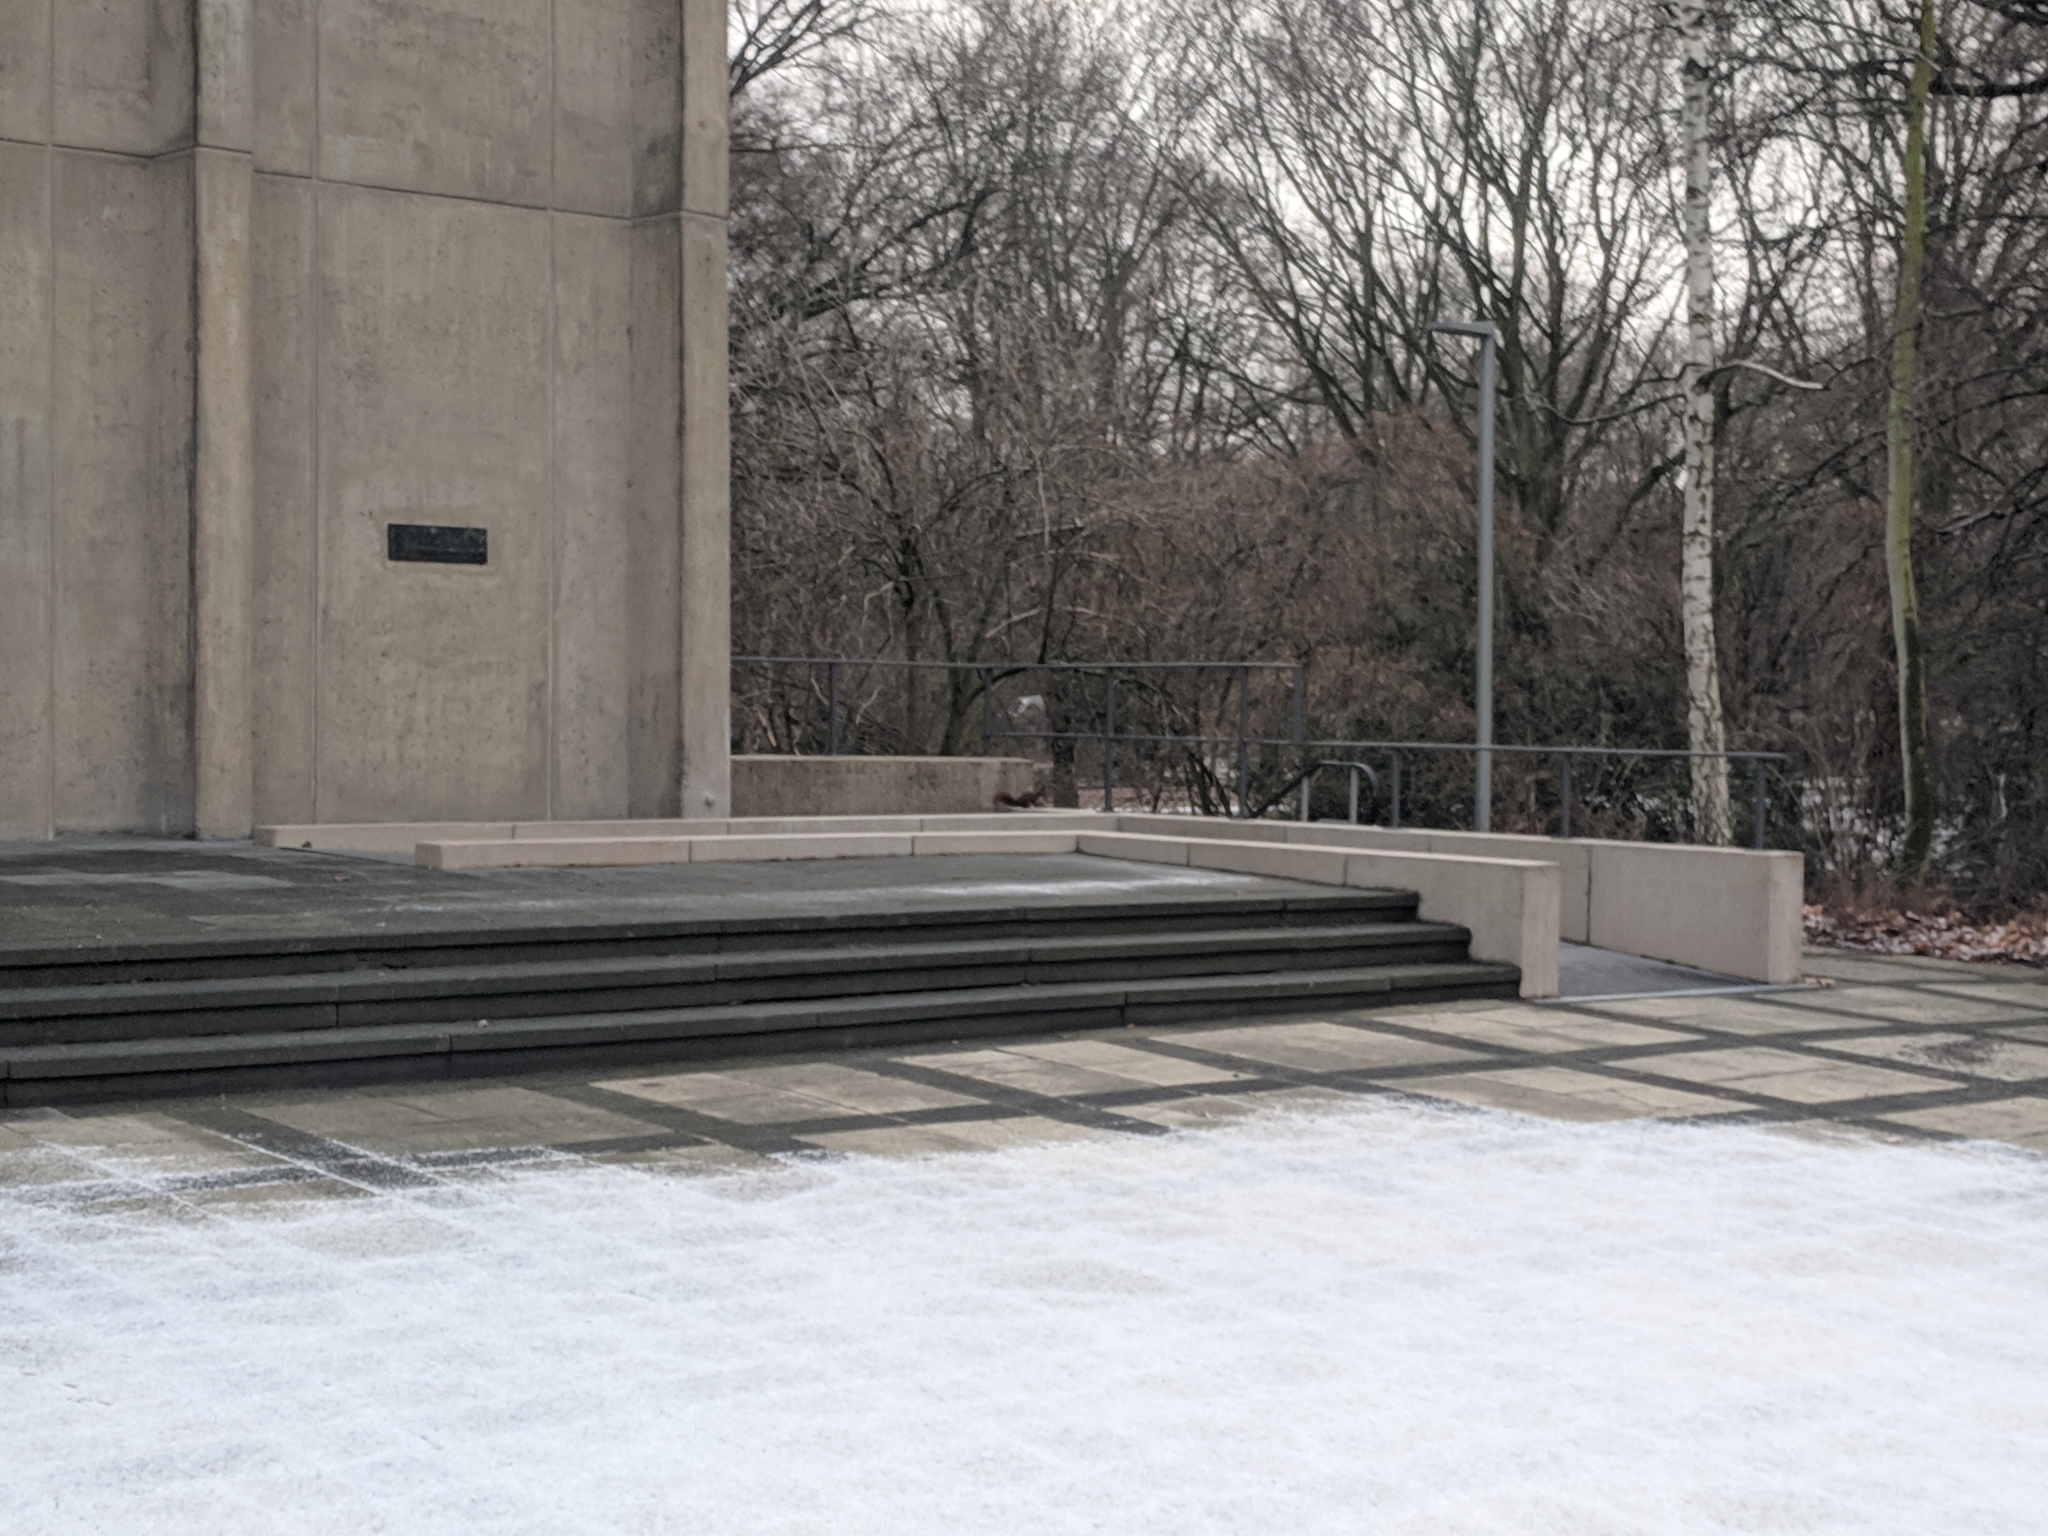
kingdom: Animalia
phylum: Chordata
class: Mammalia
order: Rodentia
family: Sciuridae
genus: Sciurus
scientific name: Sciurus vulgaris
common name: Eurasian red squirrel
